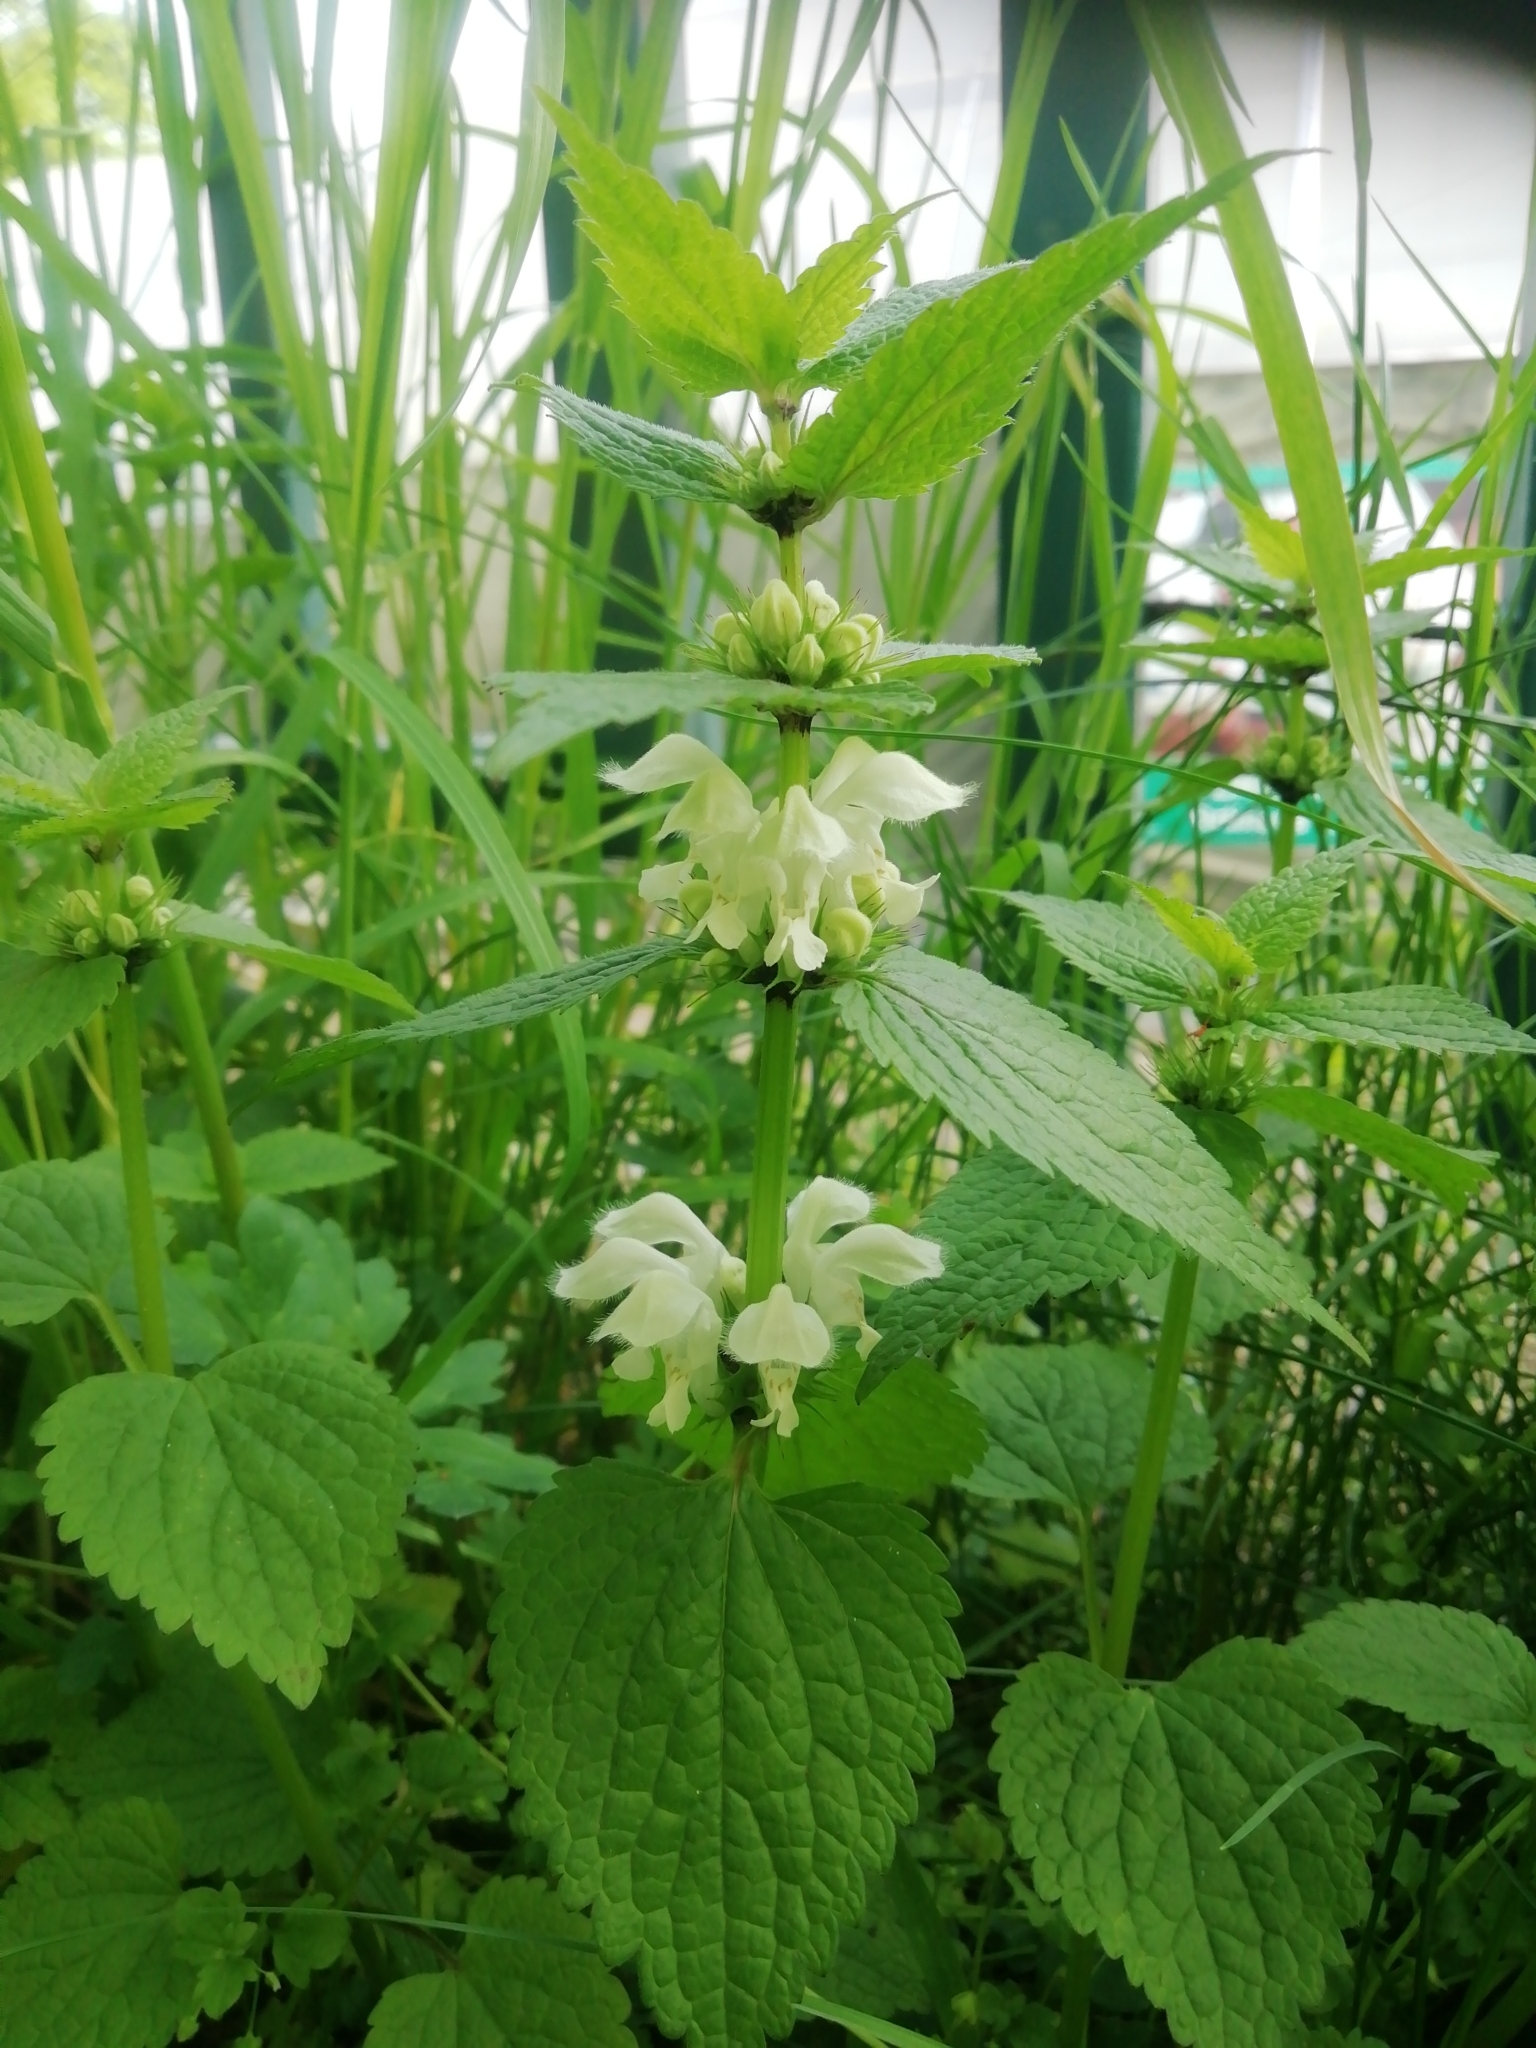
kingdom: Plantae
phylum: Tracheophyta
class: Magnoliopsida
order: Lamiales
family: Lamiaceae
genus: Lamium
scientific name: Lamium album
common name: White dead-nettle
